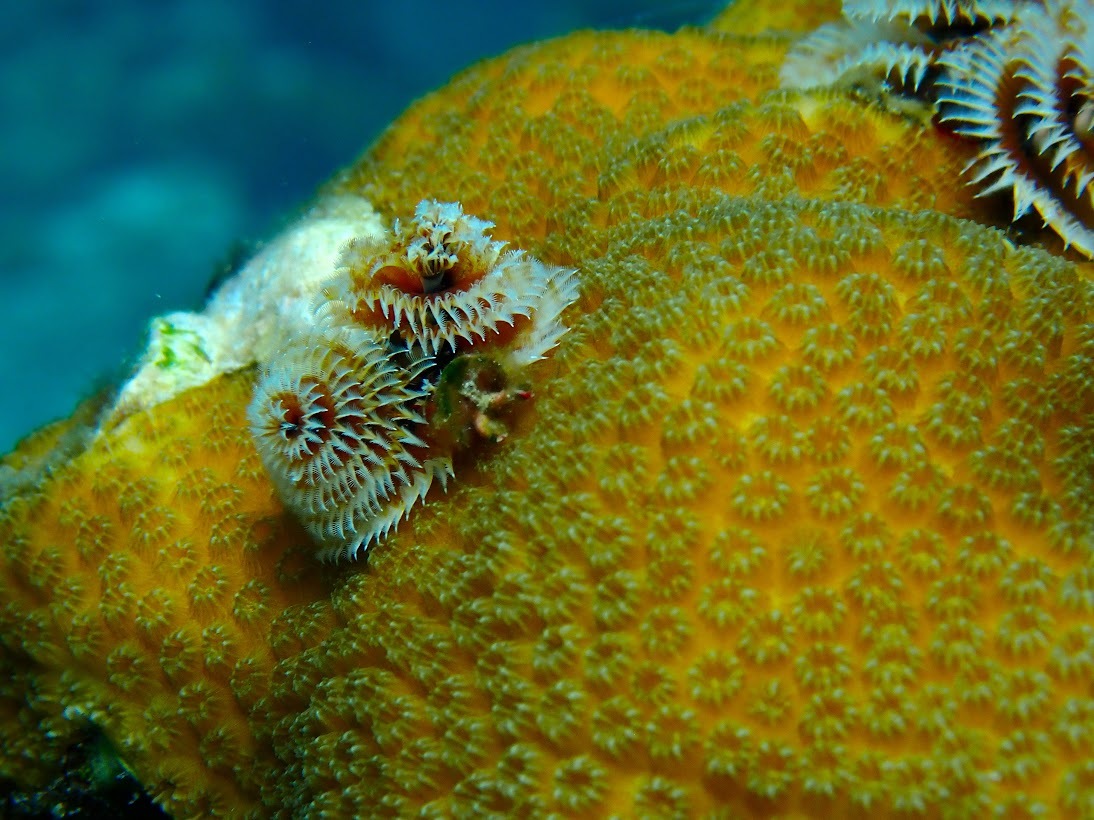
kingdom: Animalia
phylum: Annelida
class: Polychaeta
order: Sabellida
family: Serpulidae
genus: Spirobranchus
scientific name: Spirobranchus giganteus
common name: Christmas tree worm
